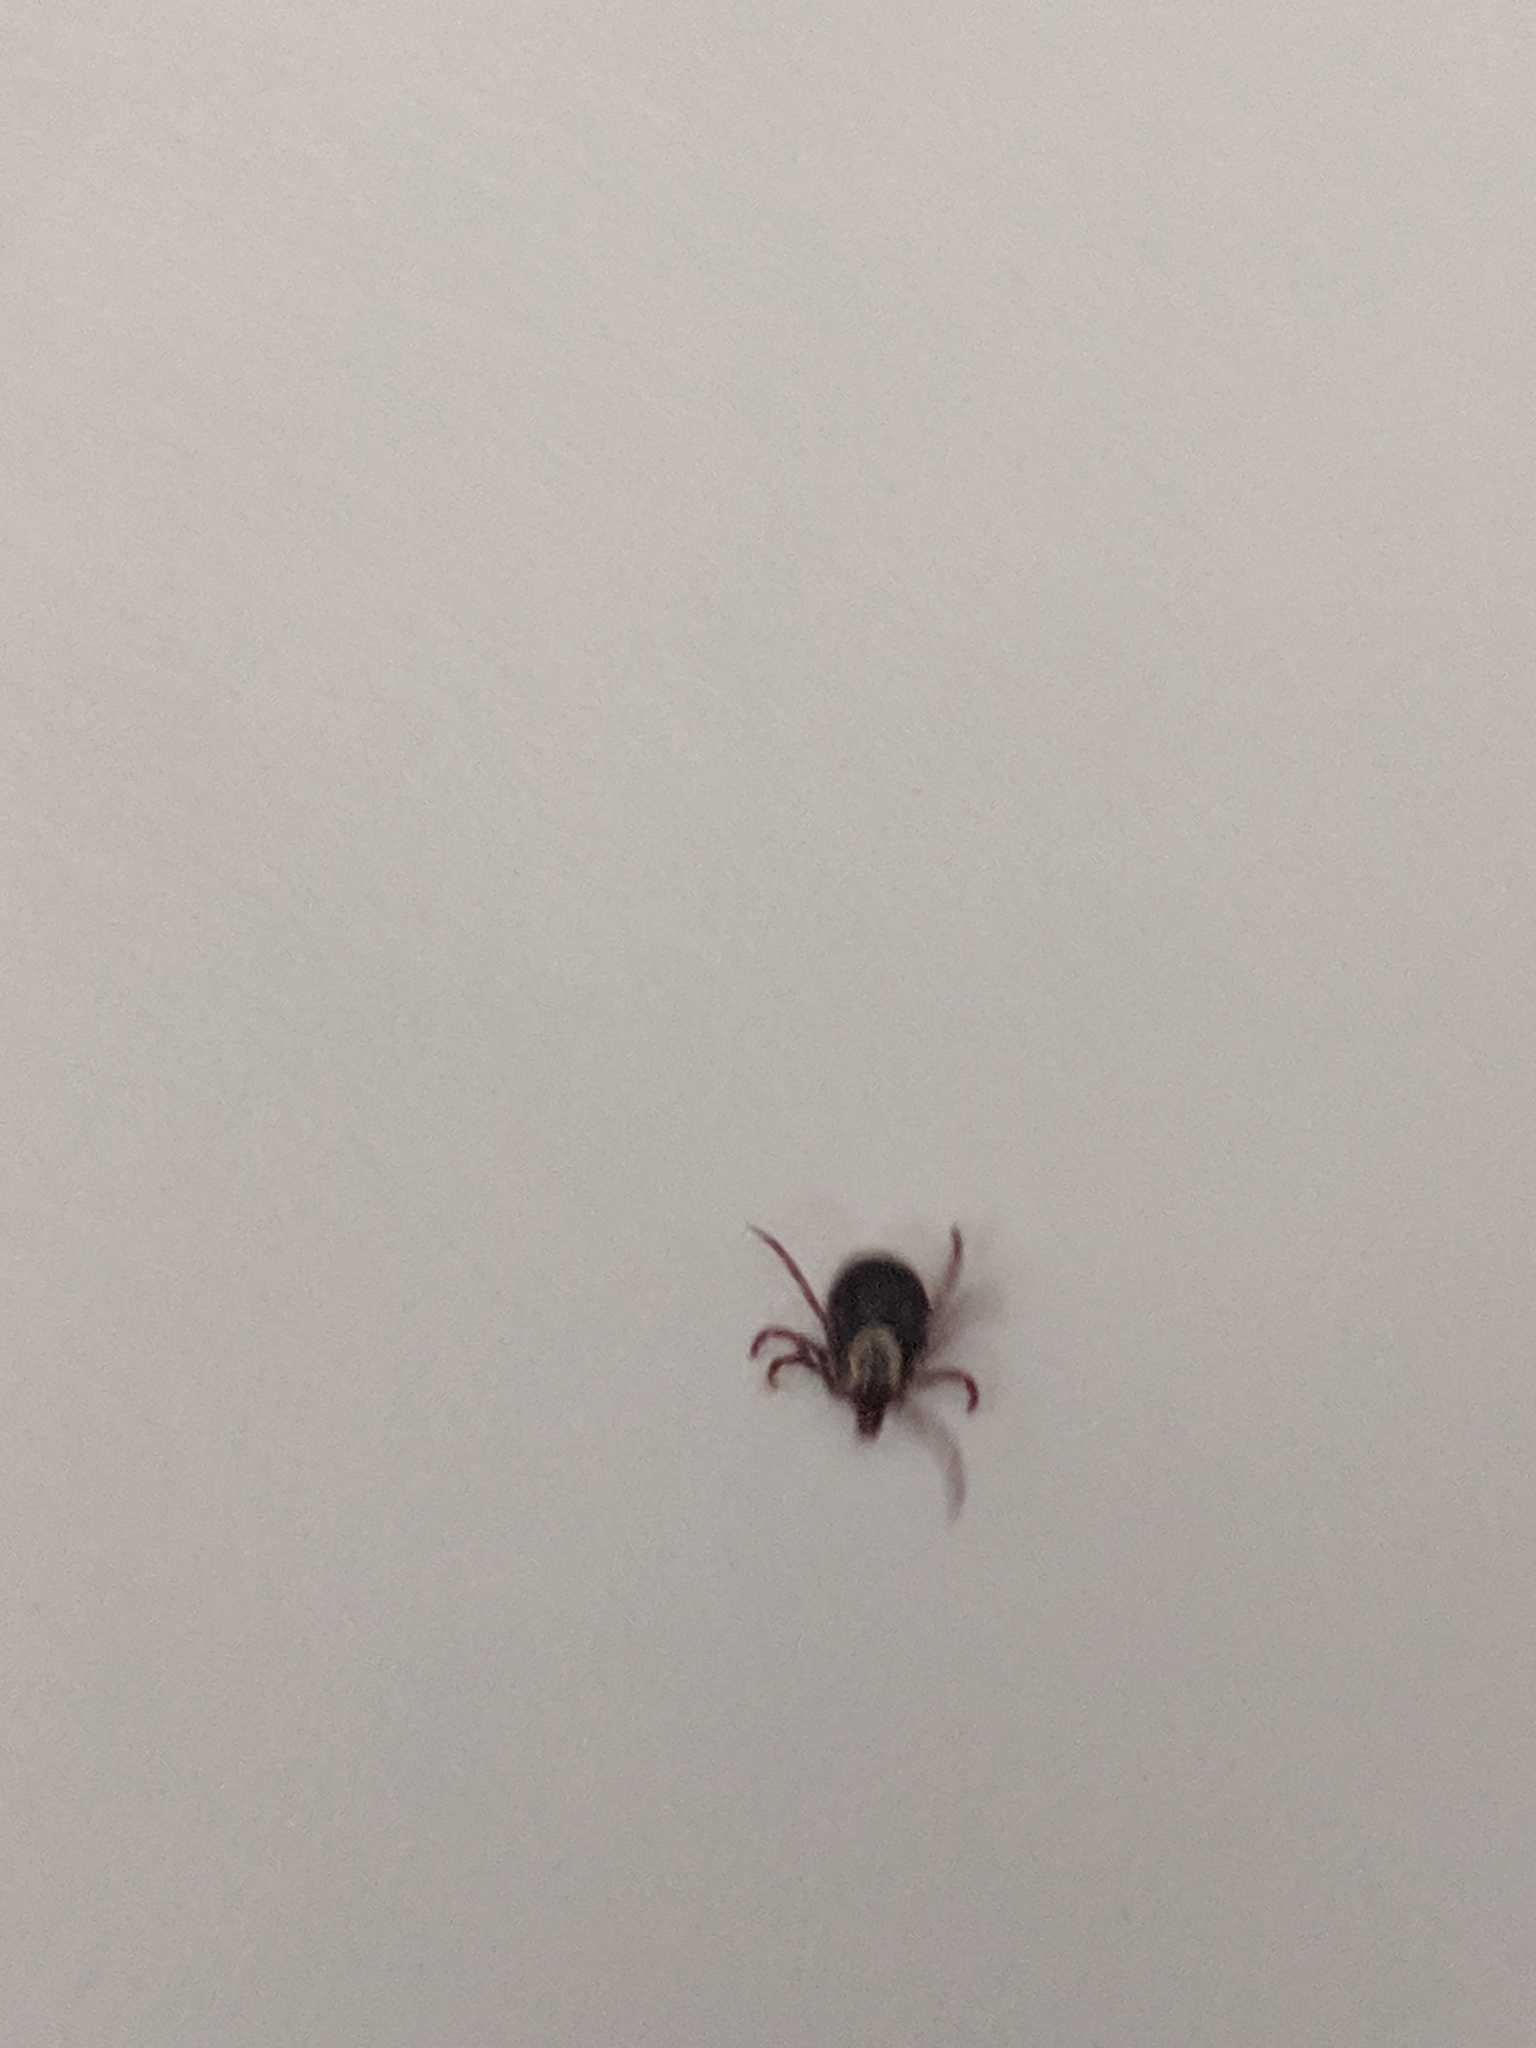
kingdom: Animalia
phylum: Arthropoda
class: Arachnida
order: Ixodida
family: Ixodidae
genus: Dermacentor
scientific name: Dermacentor variabilis
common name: American dog tick
